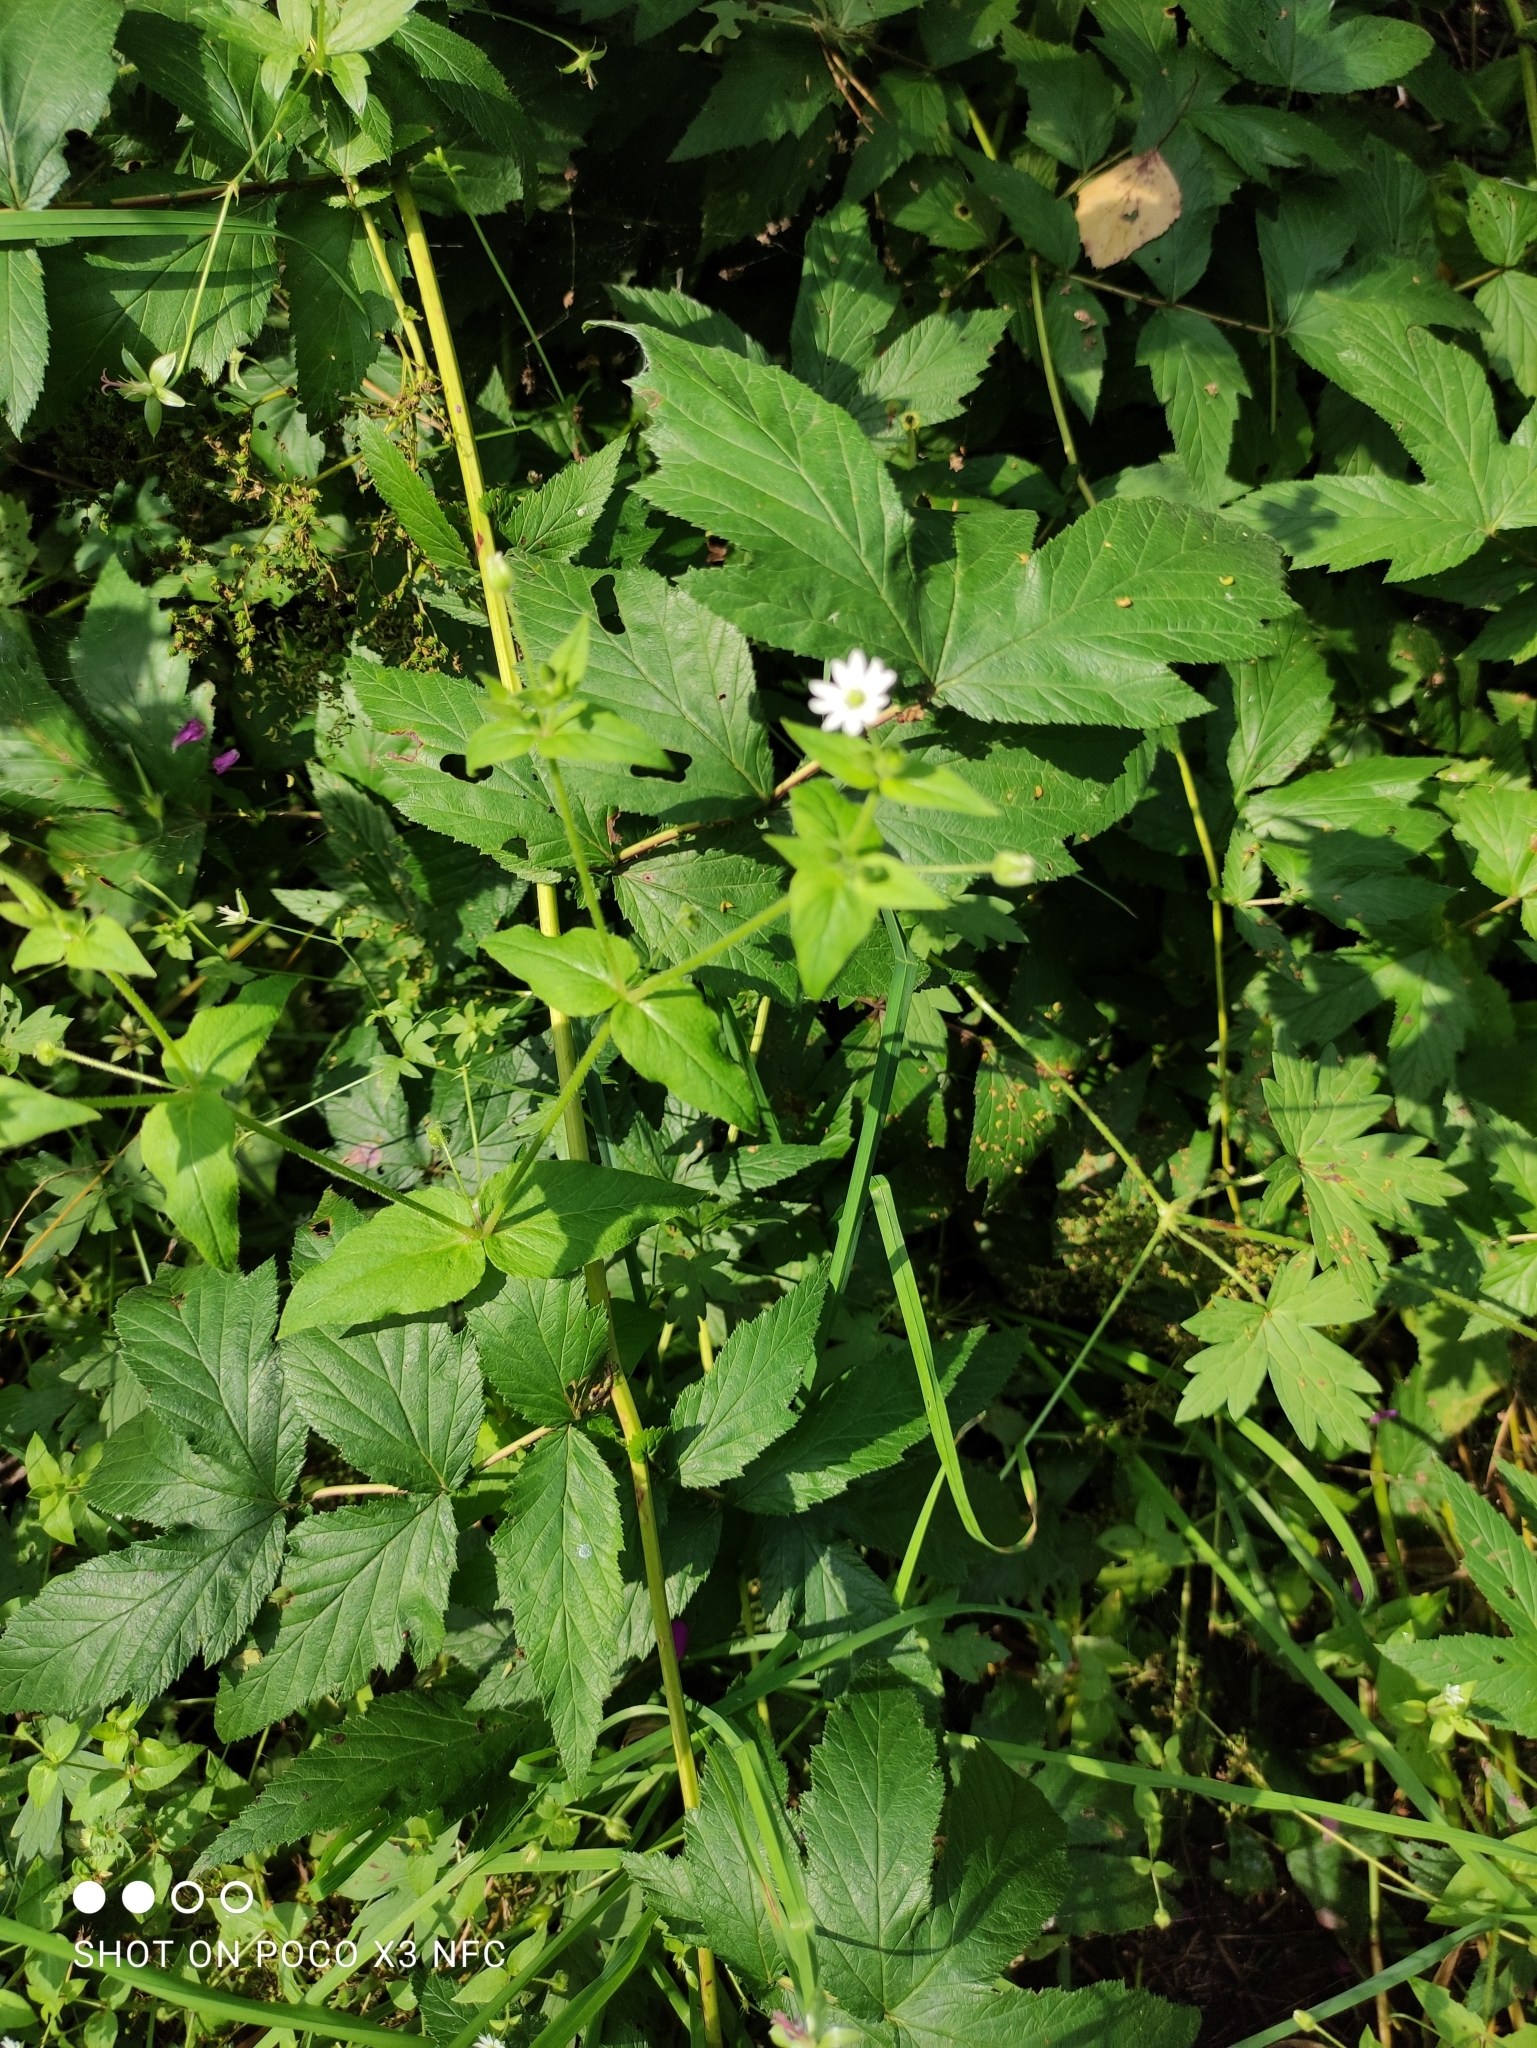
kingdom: Plantae
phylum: Tracheophyta
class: Magnoliopsida
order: Caryophyllales
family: Caryophyllaceae
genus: Stellaria
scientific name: Stellaria aquatica
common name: Water chickweed
